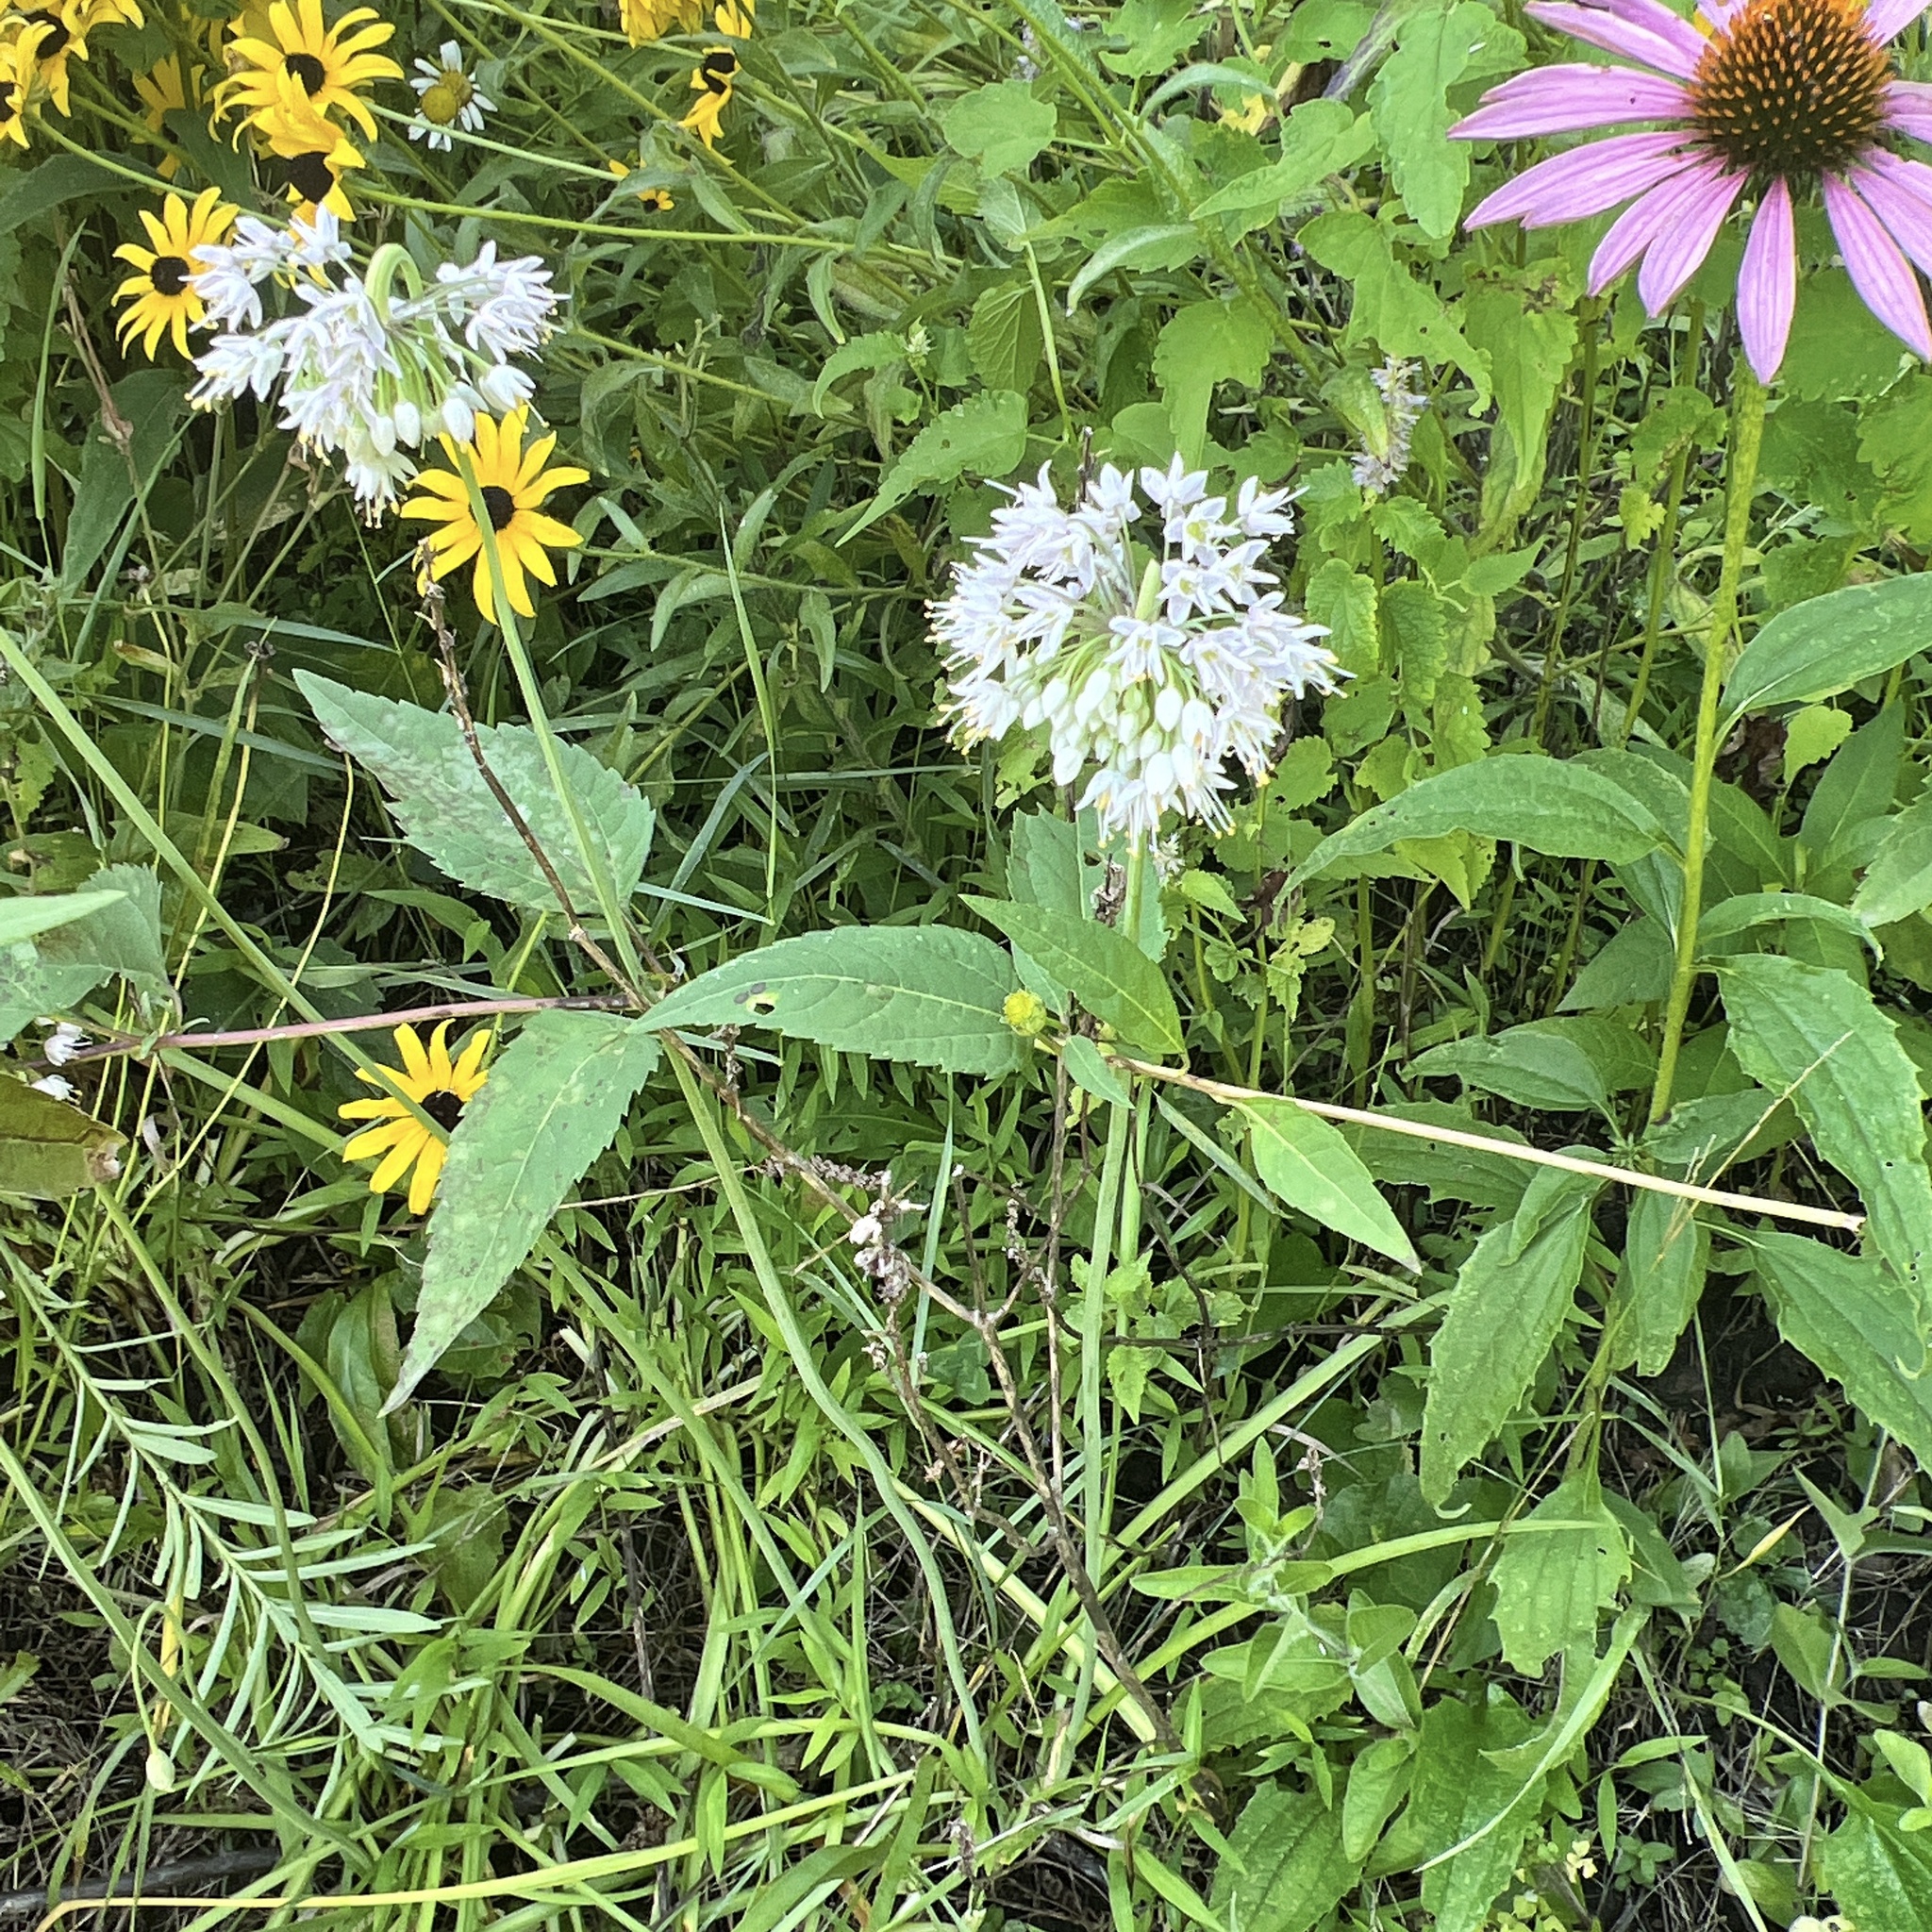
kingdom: Plantae
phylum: Tracheophyta
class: Liliopsida
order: Asparagales
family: Amaryllidaceae
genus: Allium
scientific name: Allium cernuum
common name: Nodding onion
